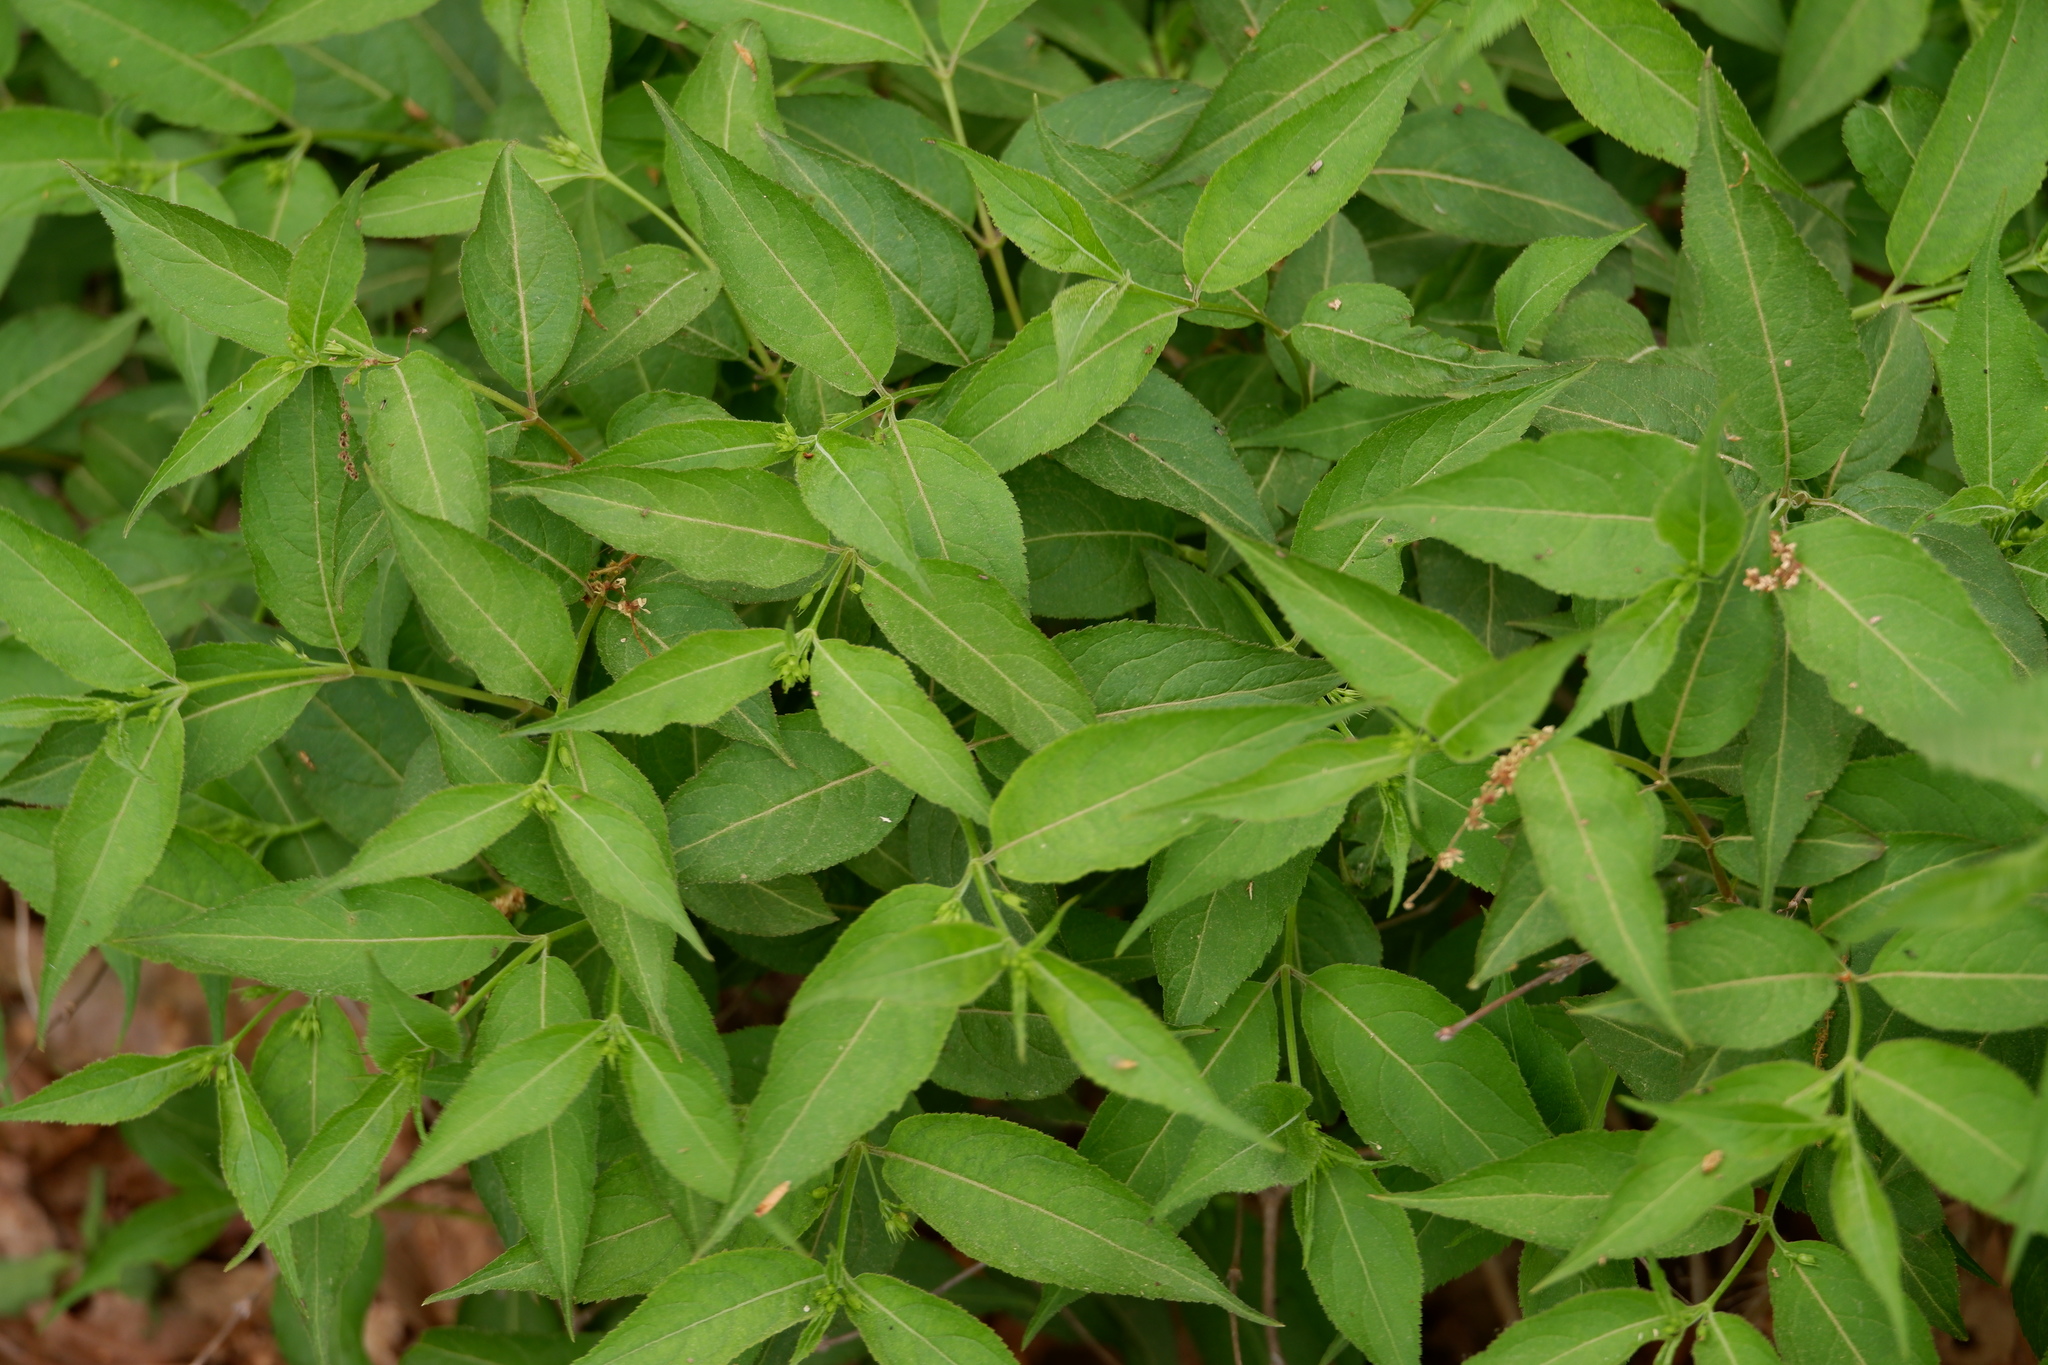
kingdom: Plantae
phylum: Tracheophyta
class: Magnoliopsida
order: Dipsacales
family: Caprifoliaceae
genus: Diervilla
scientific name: Diervilla lonicera
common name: Bush-honeysuckle
